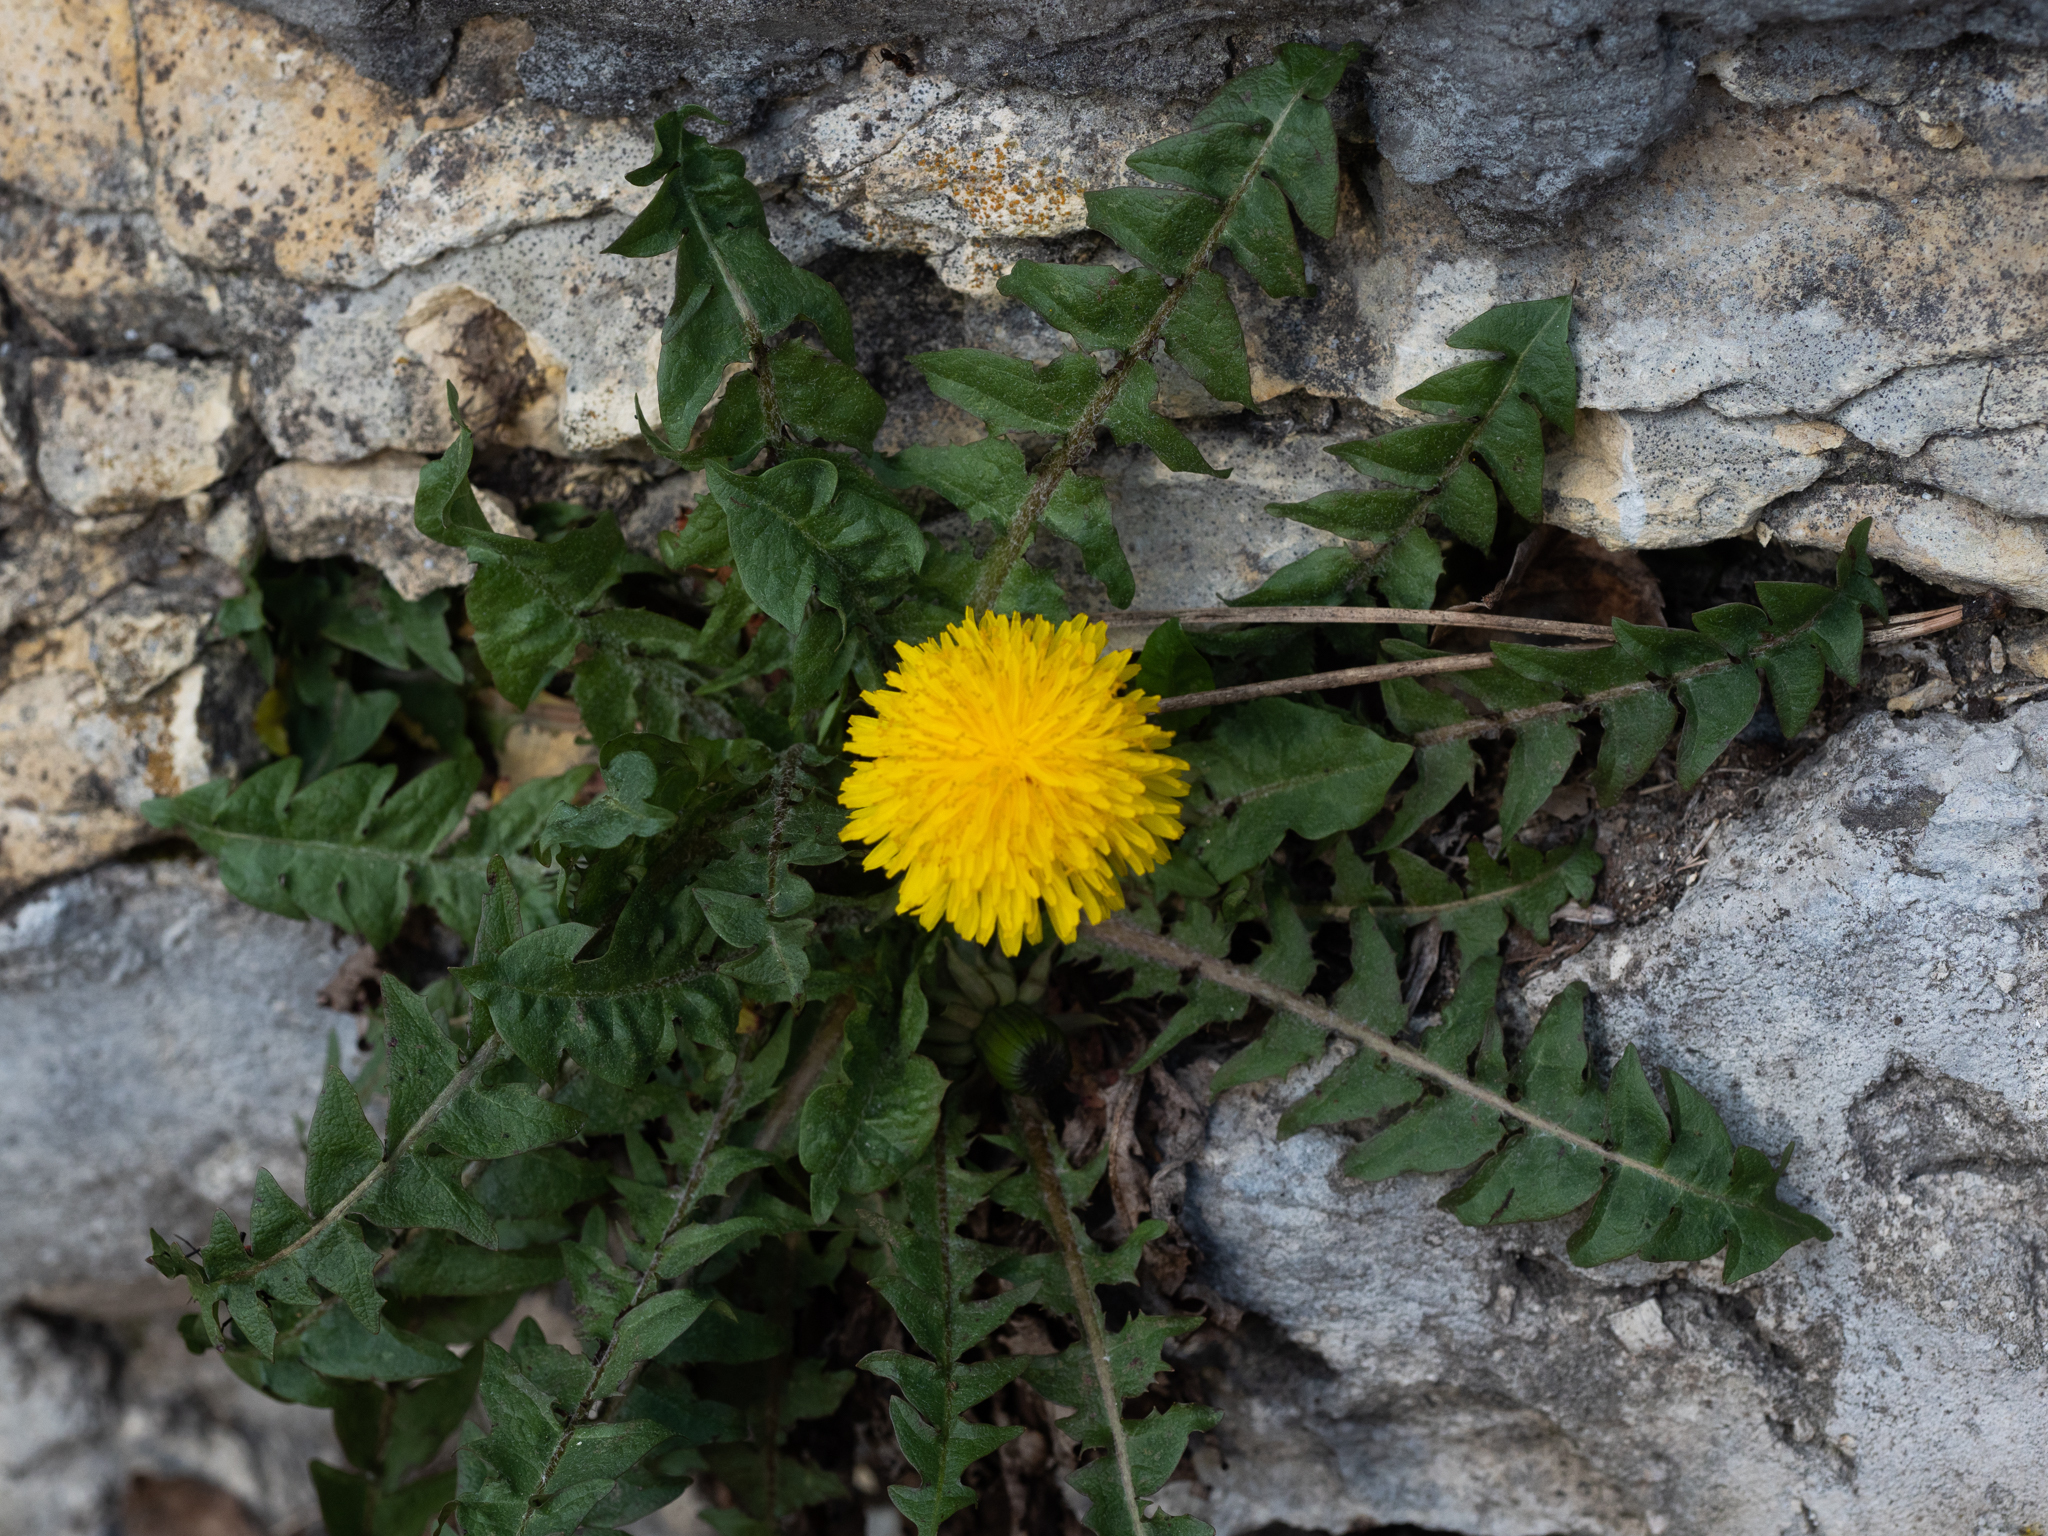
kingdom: Plantae
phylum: Tracheophyta
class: Magnoliopsida
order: Asterales
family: Asteraceae
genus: Taraxacum
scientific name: Taraxacum officinale
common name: Common dandelion
